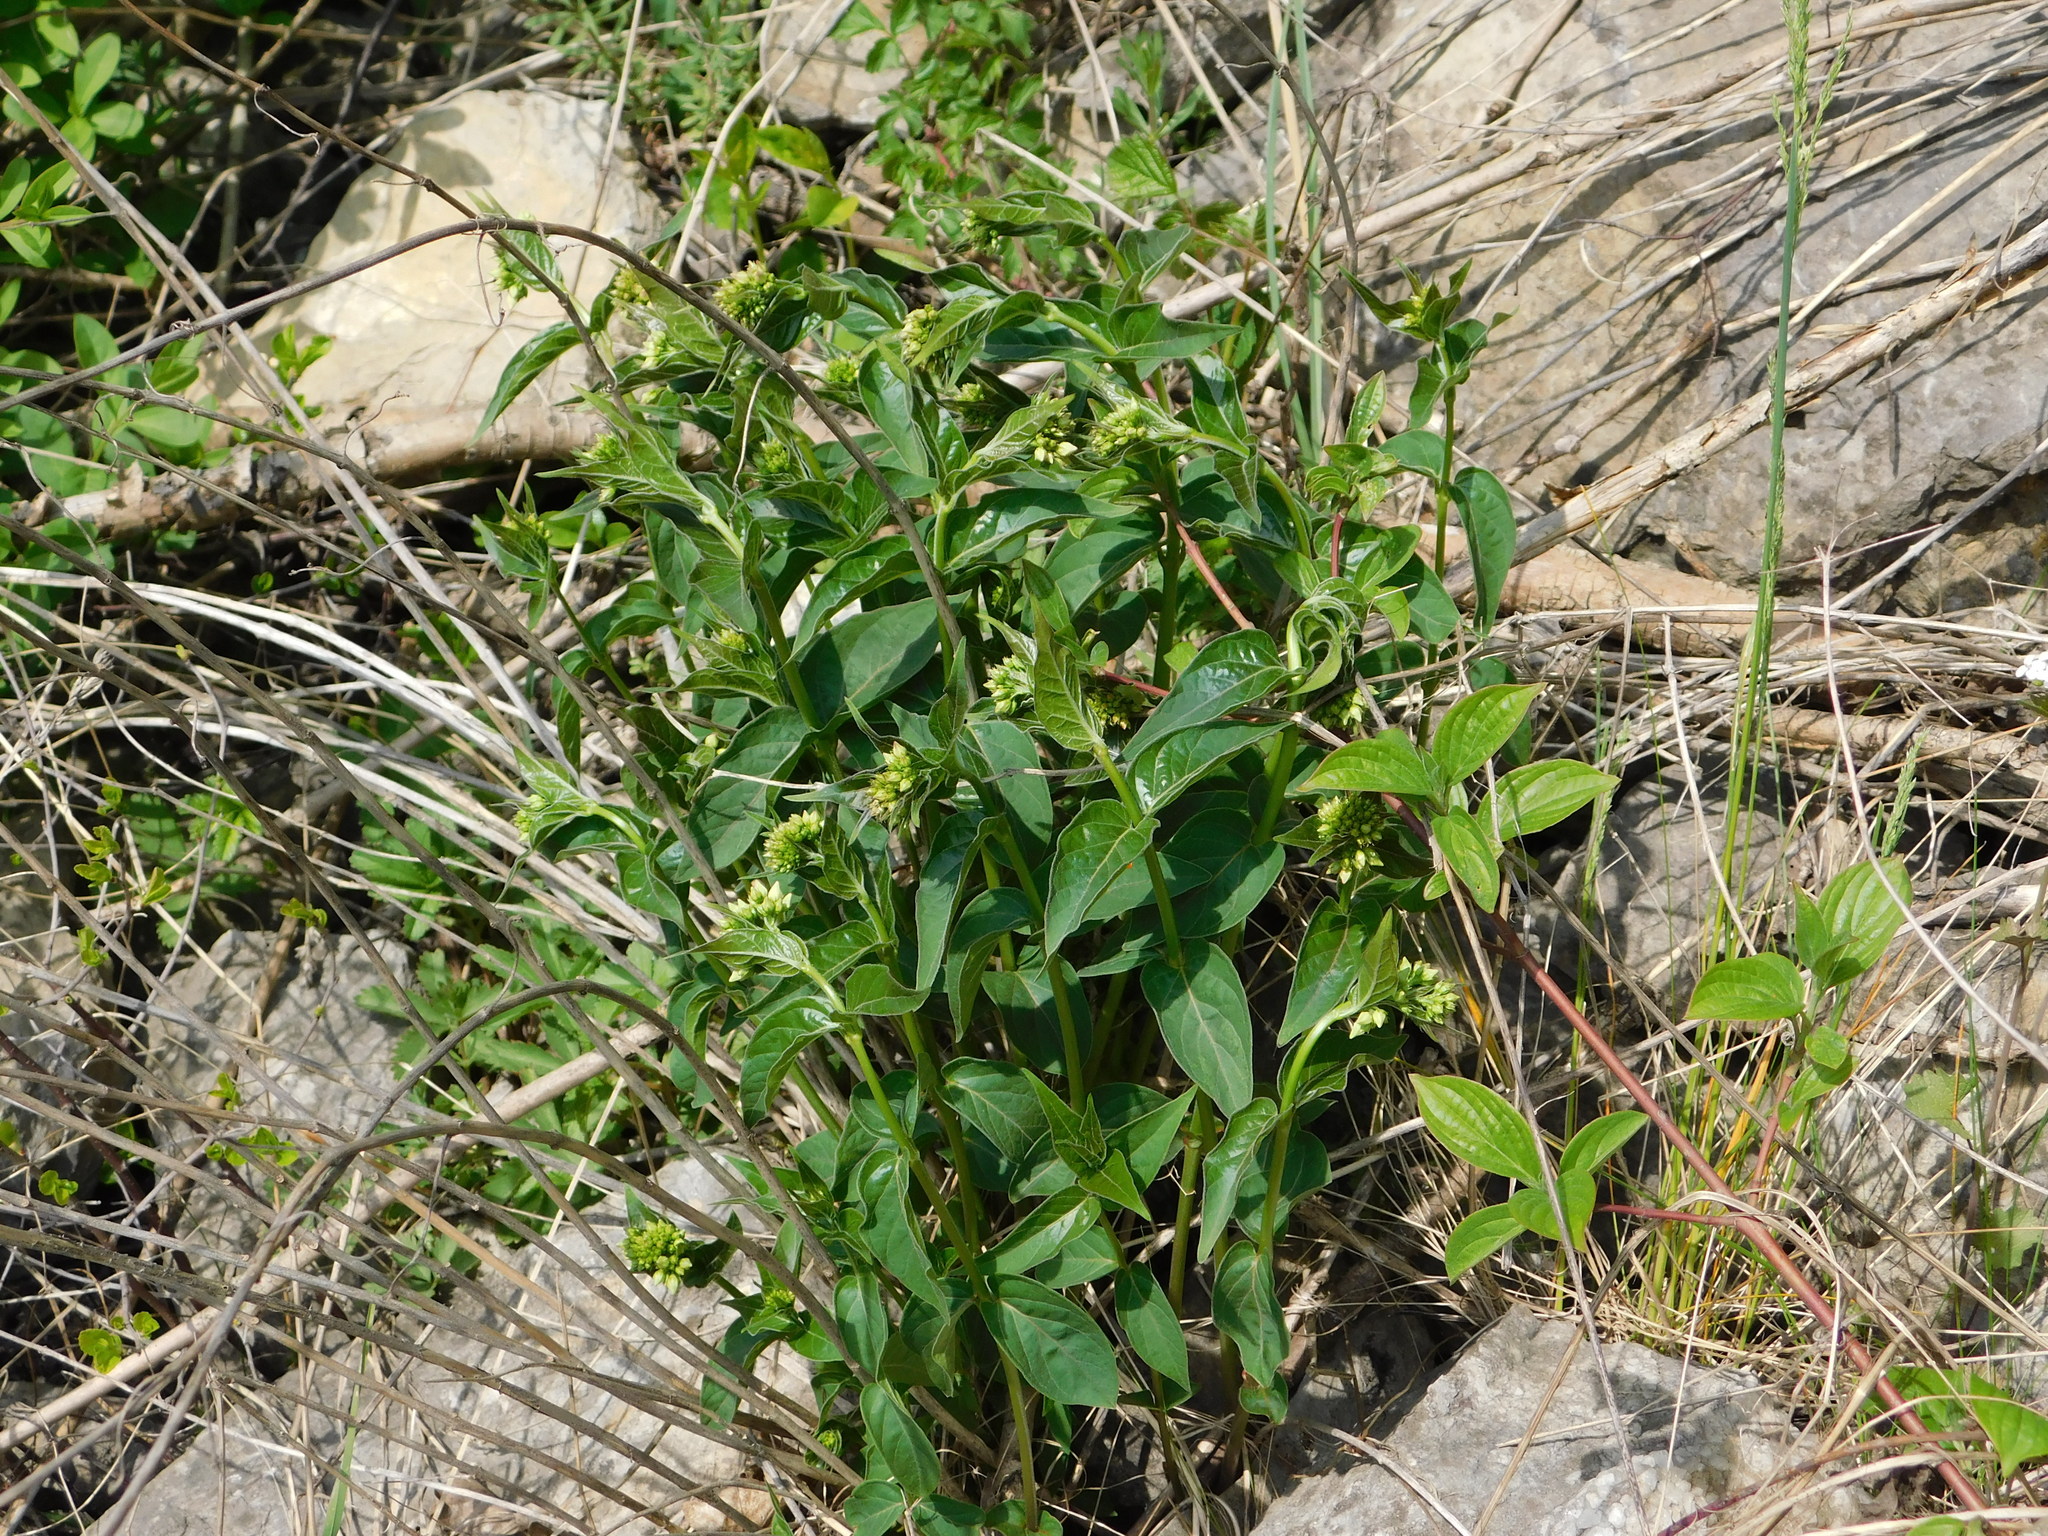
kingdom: Plantae
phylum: Tracheophyta
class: Magnoliopsida
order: Gentianales
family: Apocynaceae
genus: Vincetoxicum
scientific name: Vincetoxicum hirundinaria
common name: White swallowwort
